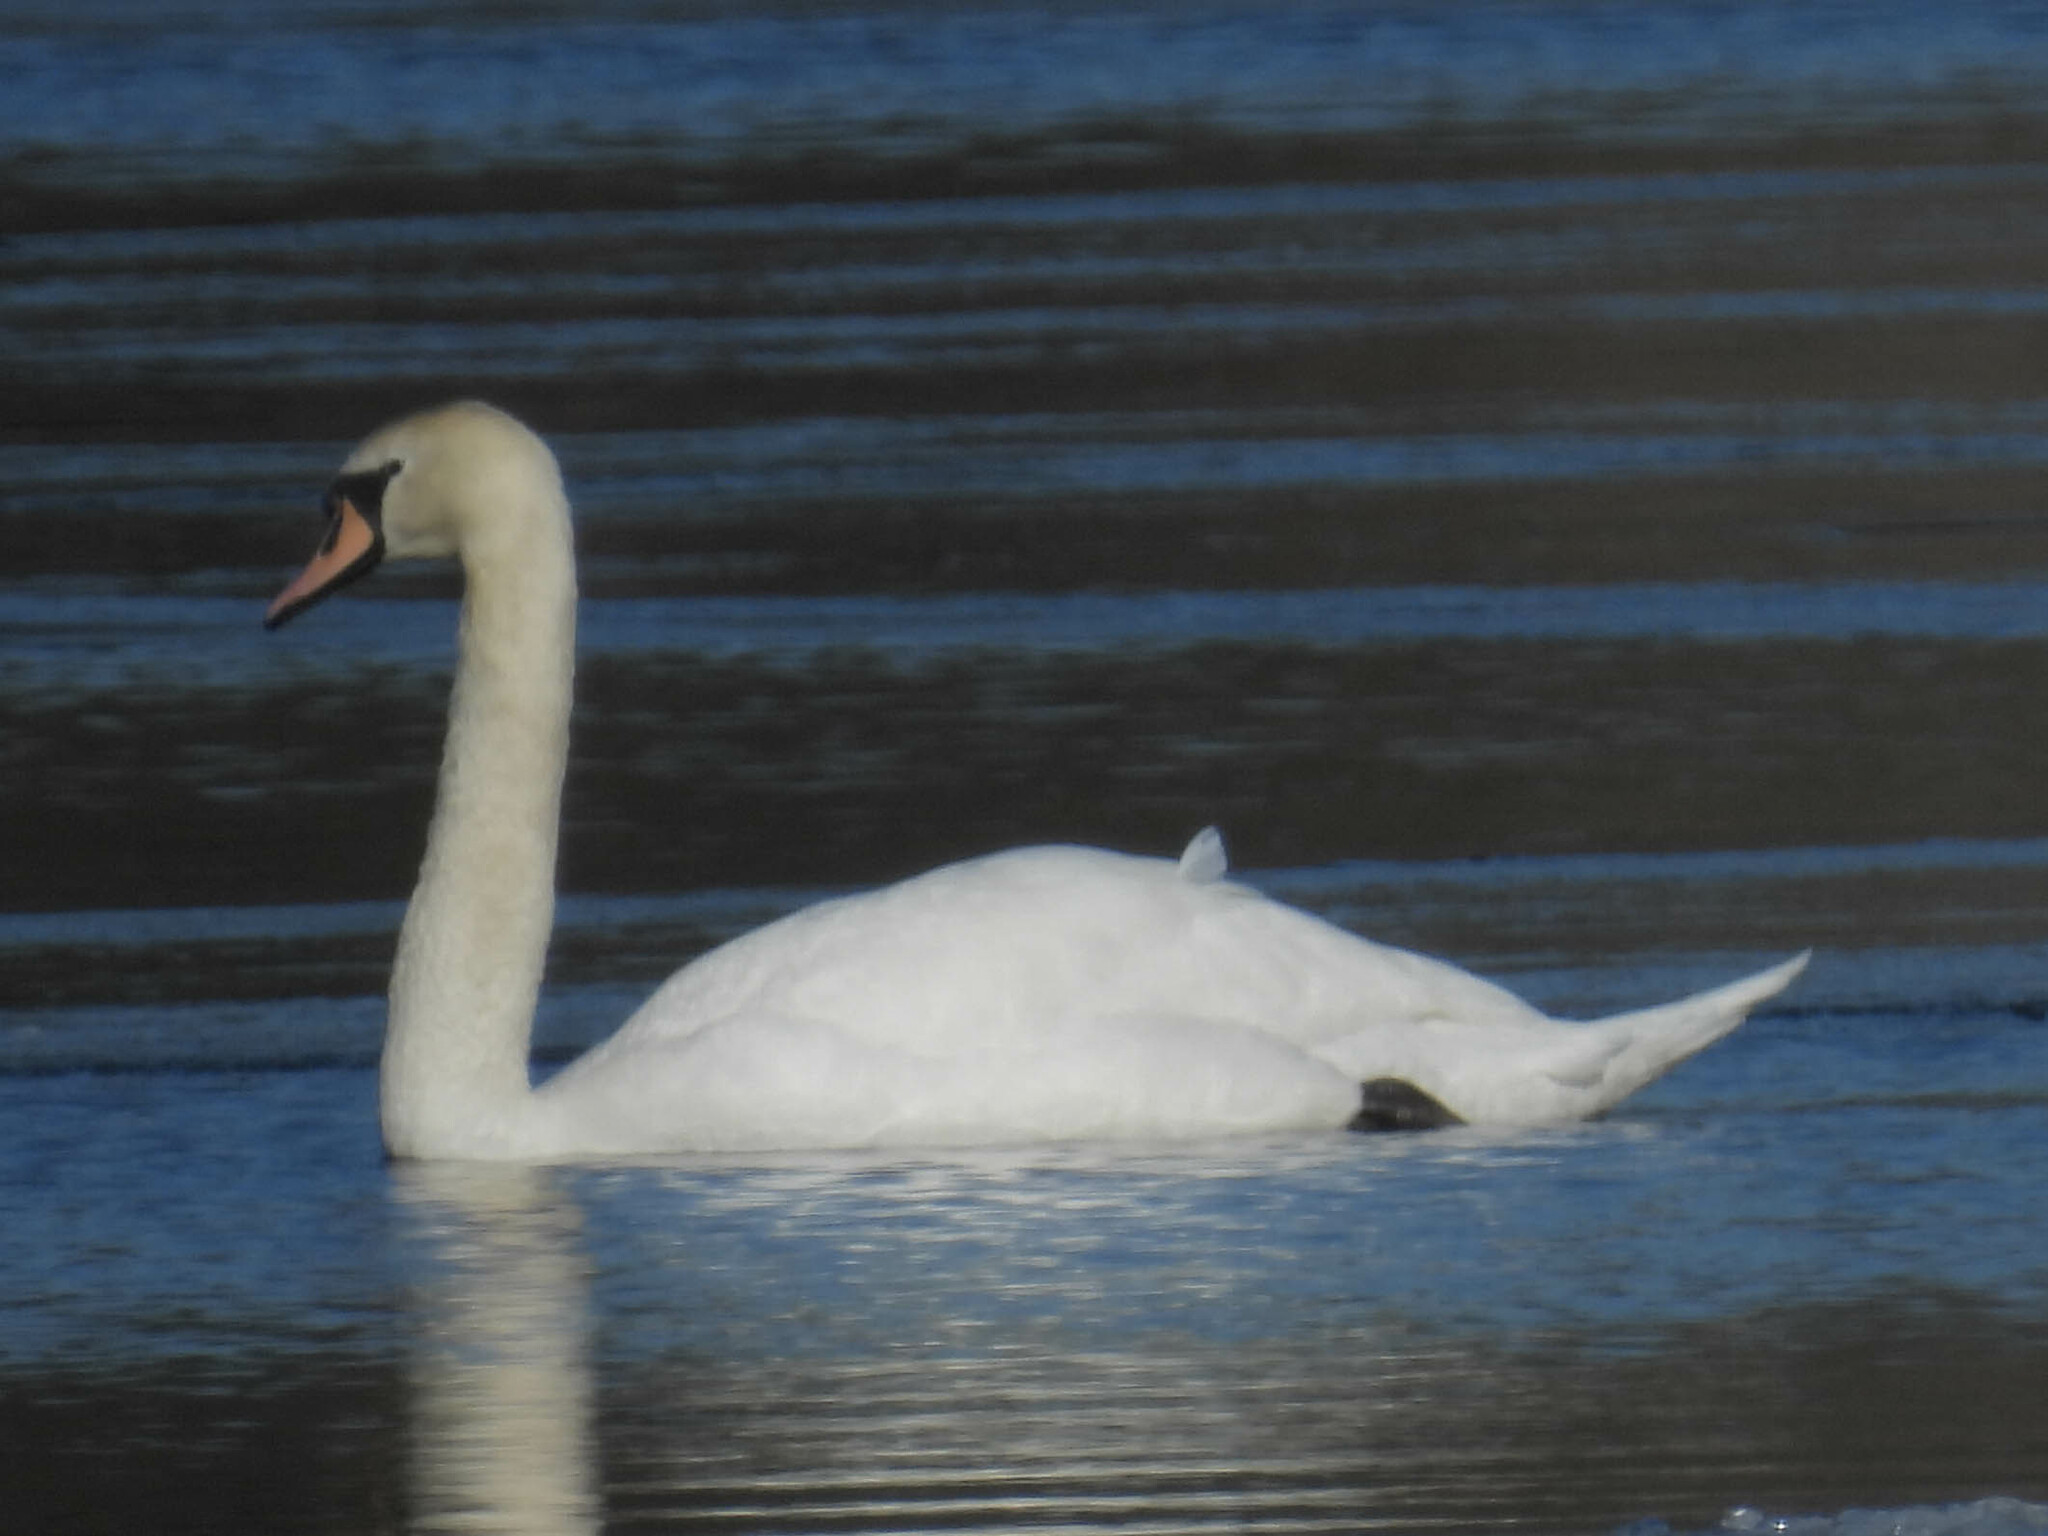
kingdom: Animalia
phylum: Chordata
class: Aves
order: Anseriformes
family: Anatidae
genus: Cygnus
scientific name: Cygnus olor
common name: Mute swan
